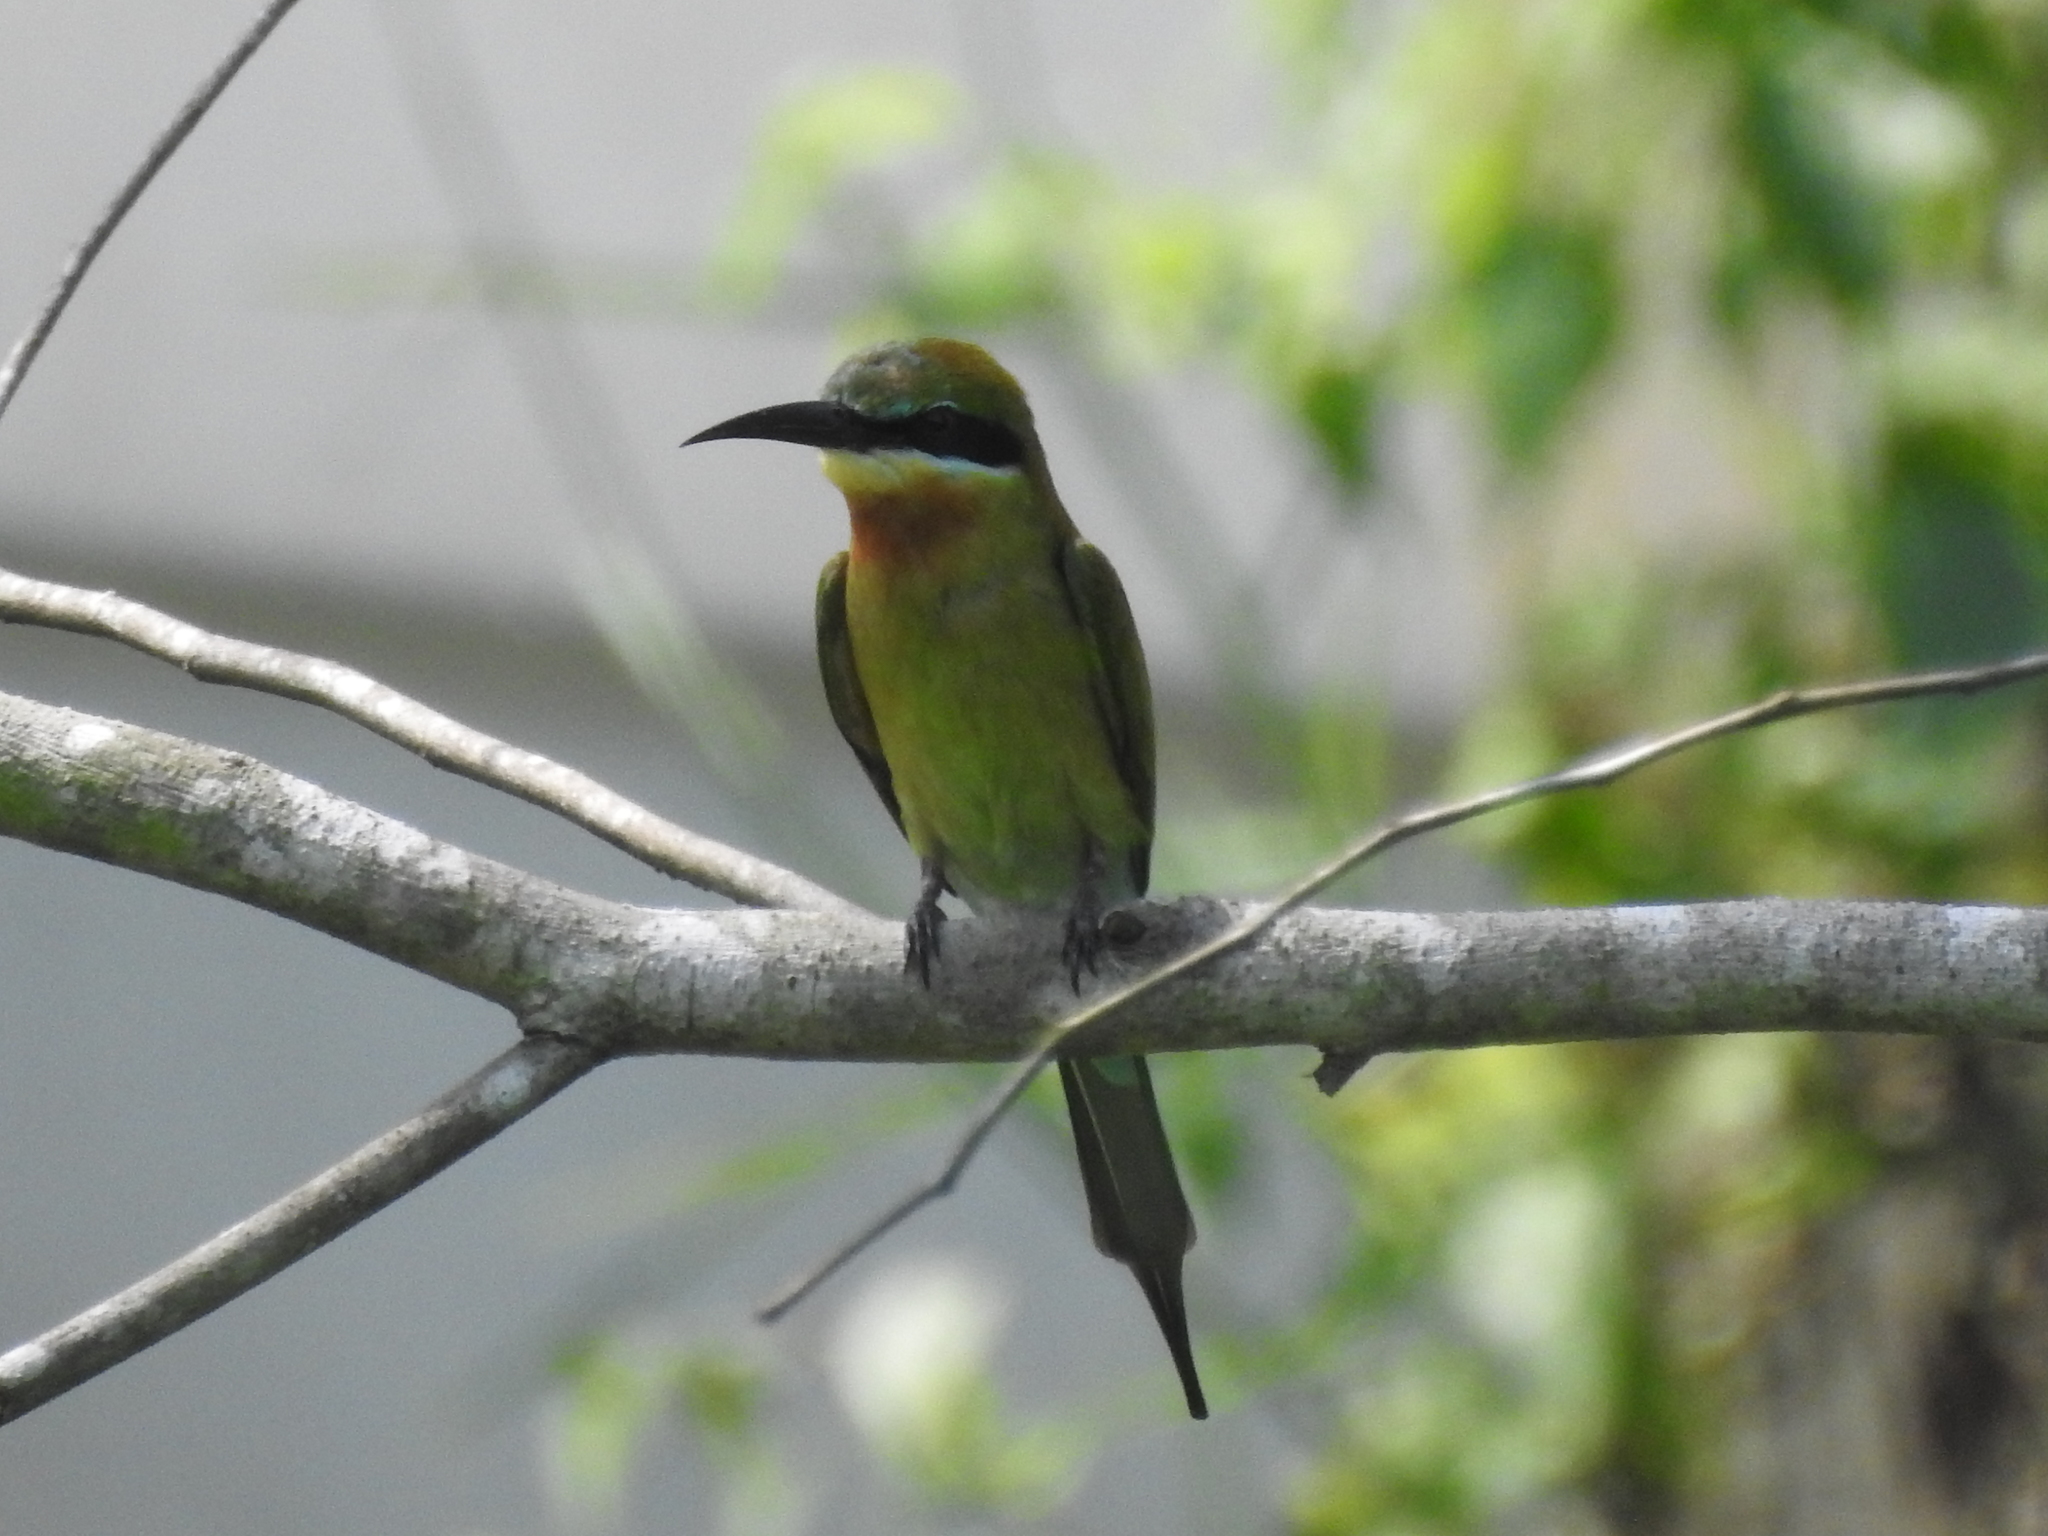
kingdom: Animalia
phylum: Chordata
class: Aves
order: Coraciiformes
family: Meropidae
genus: Merops
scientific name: Merops philippinus
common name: Blue-tailed bee-eater
